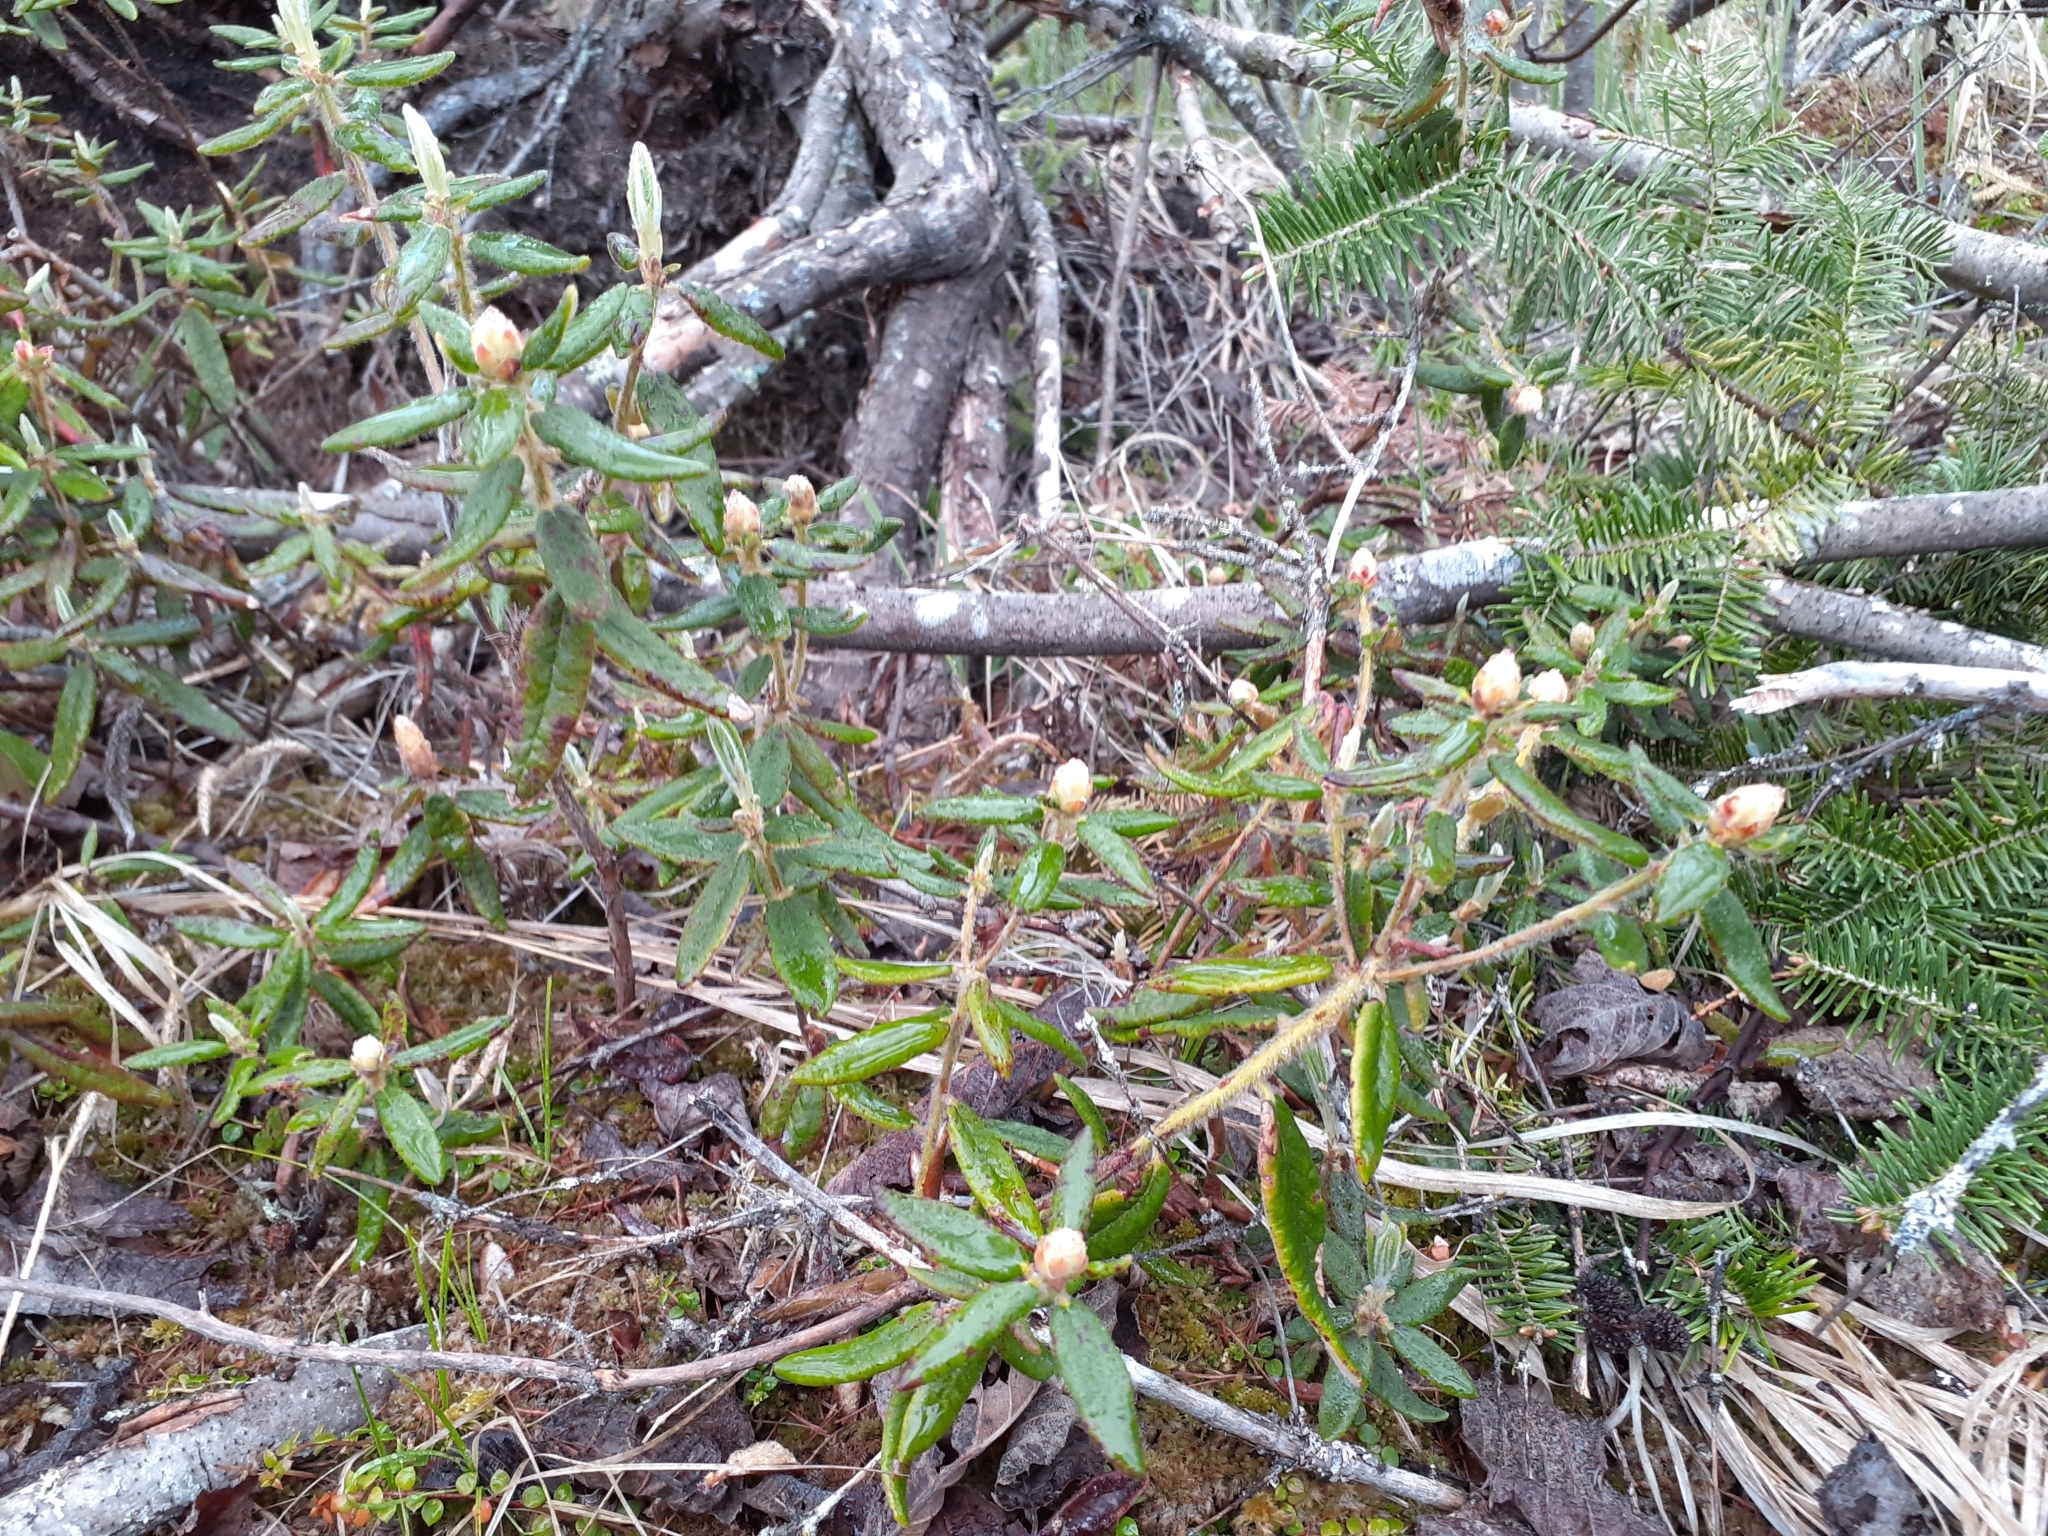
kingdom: Plantae
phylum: Tracheophyta
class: Magnoliopsida
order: Ericales
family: Ericaceae
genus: Rhododendron
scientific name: Rhododendron groenlandicum
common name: Bog labrador tea
